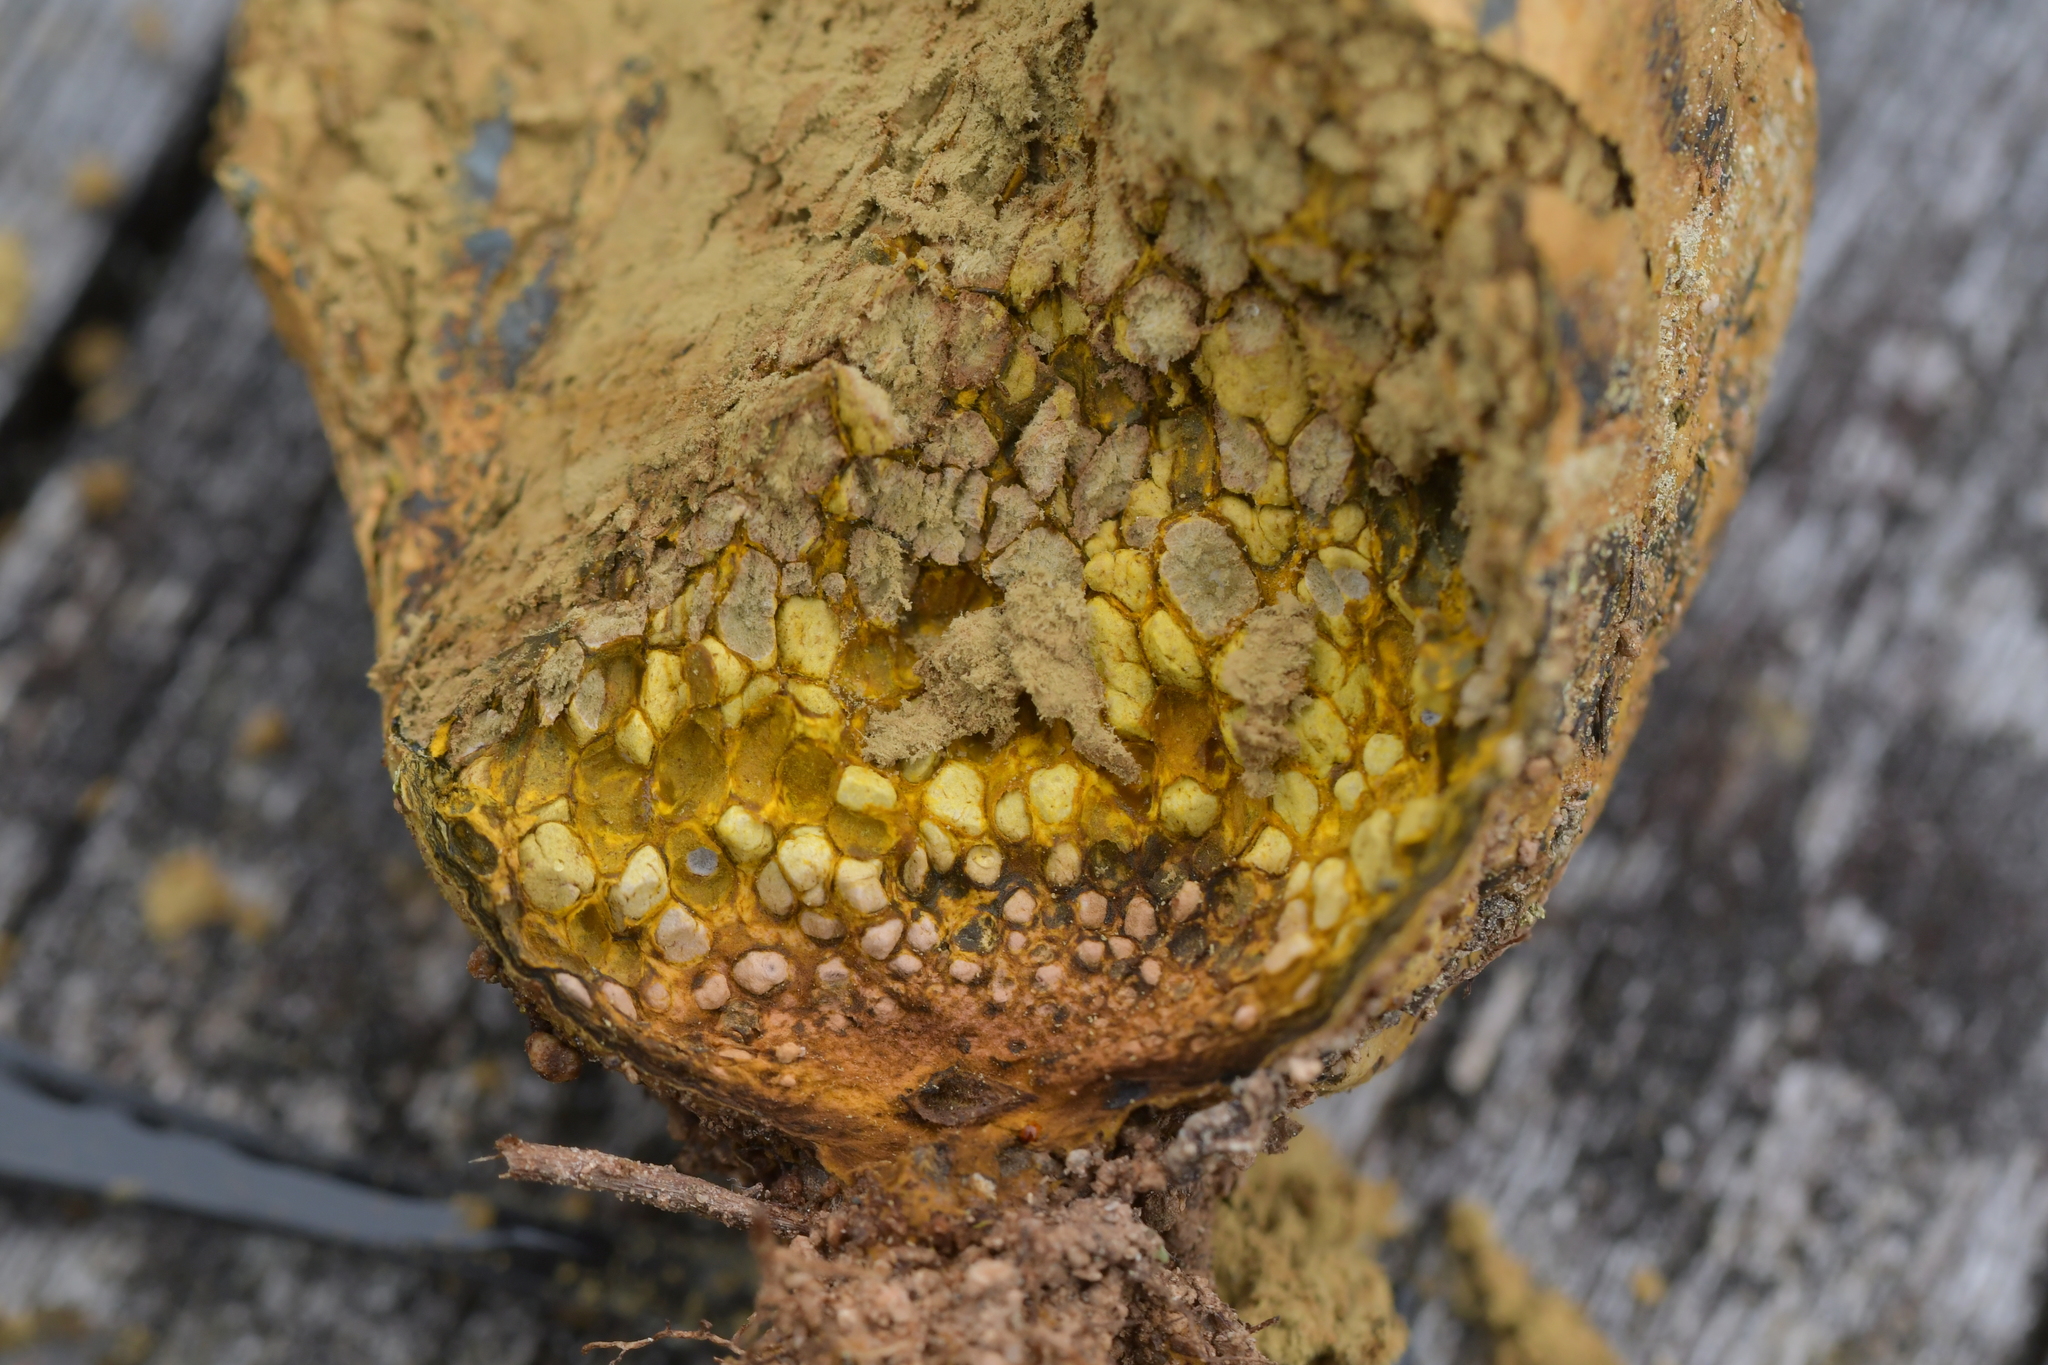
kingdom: Fungi
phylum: Basidiomycota
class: Agaricomycetes
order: Boletales
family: Sclerodermataceae
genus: Pisolithus
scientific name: Pisolithus thermaeus
